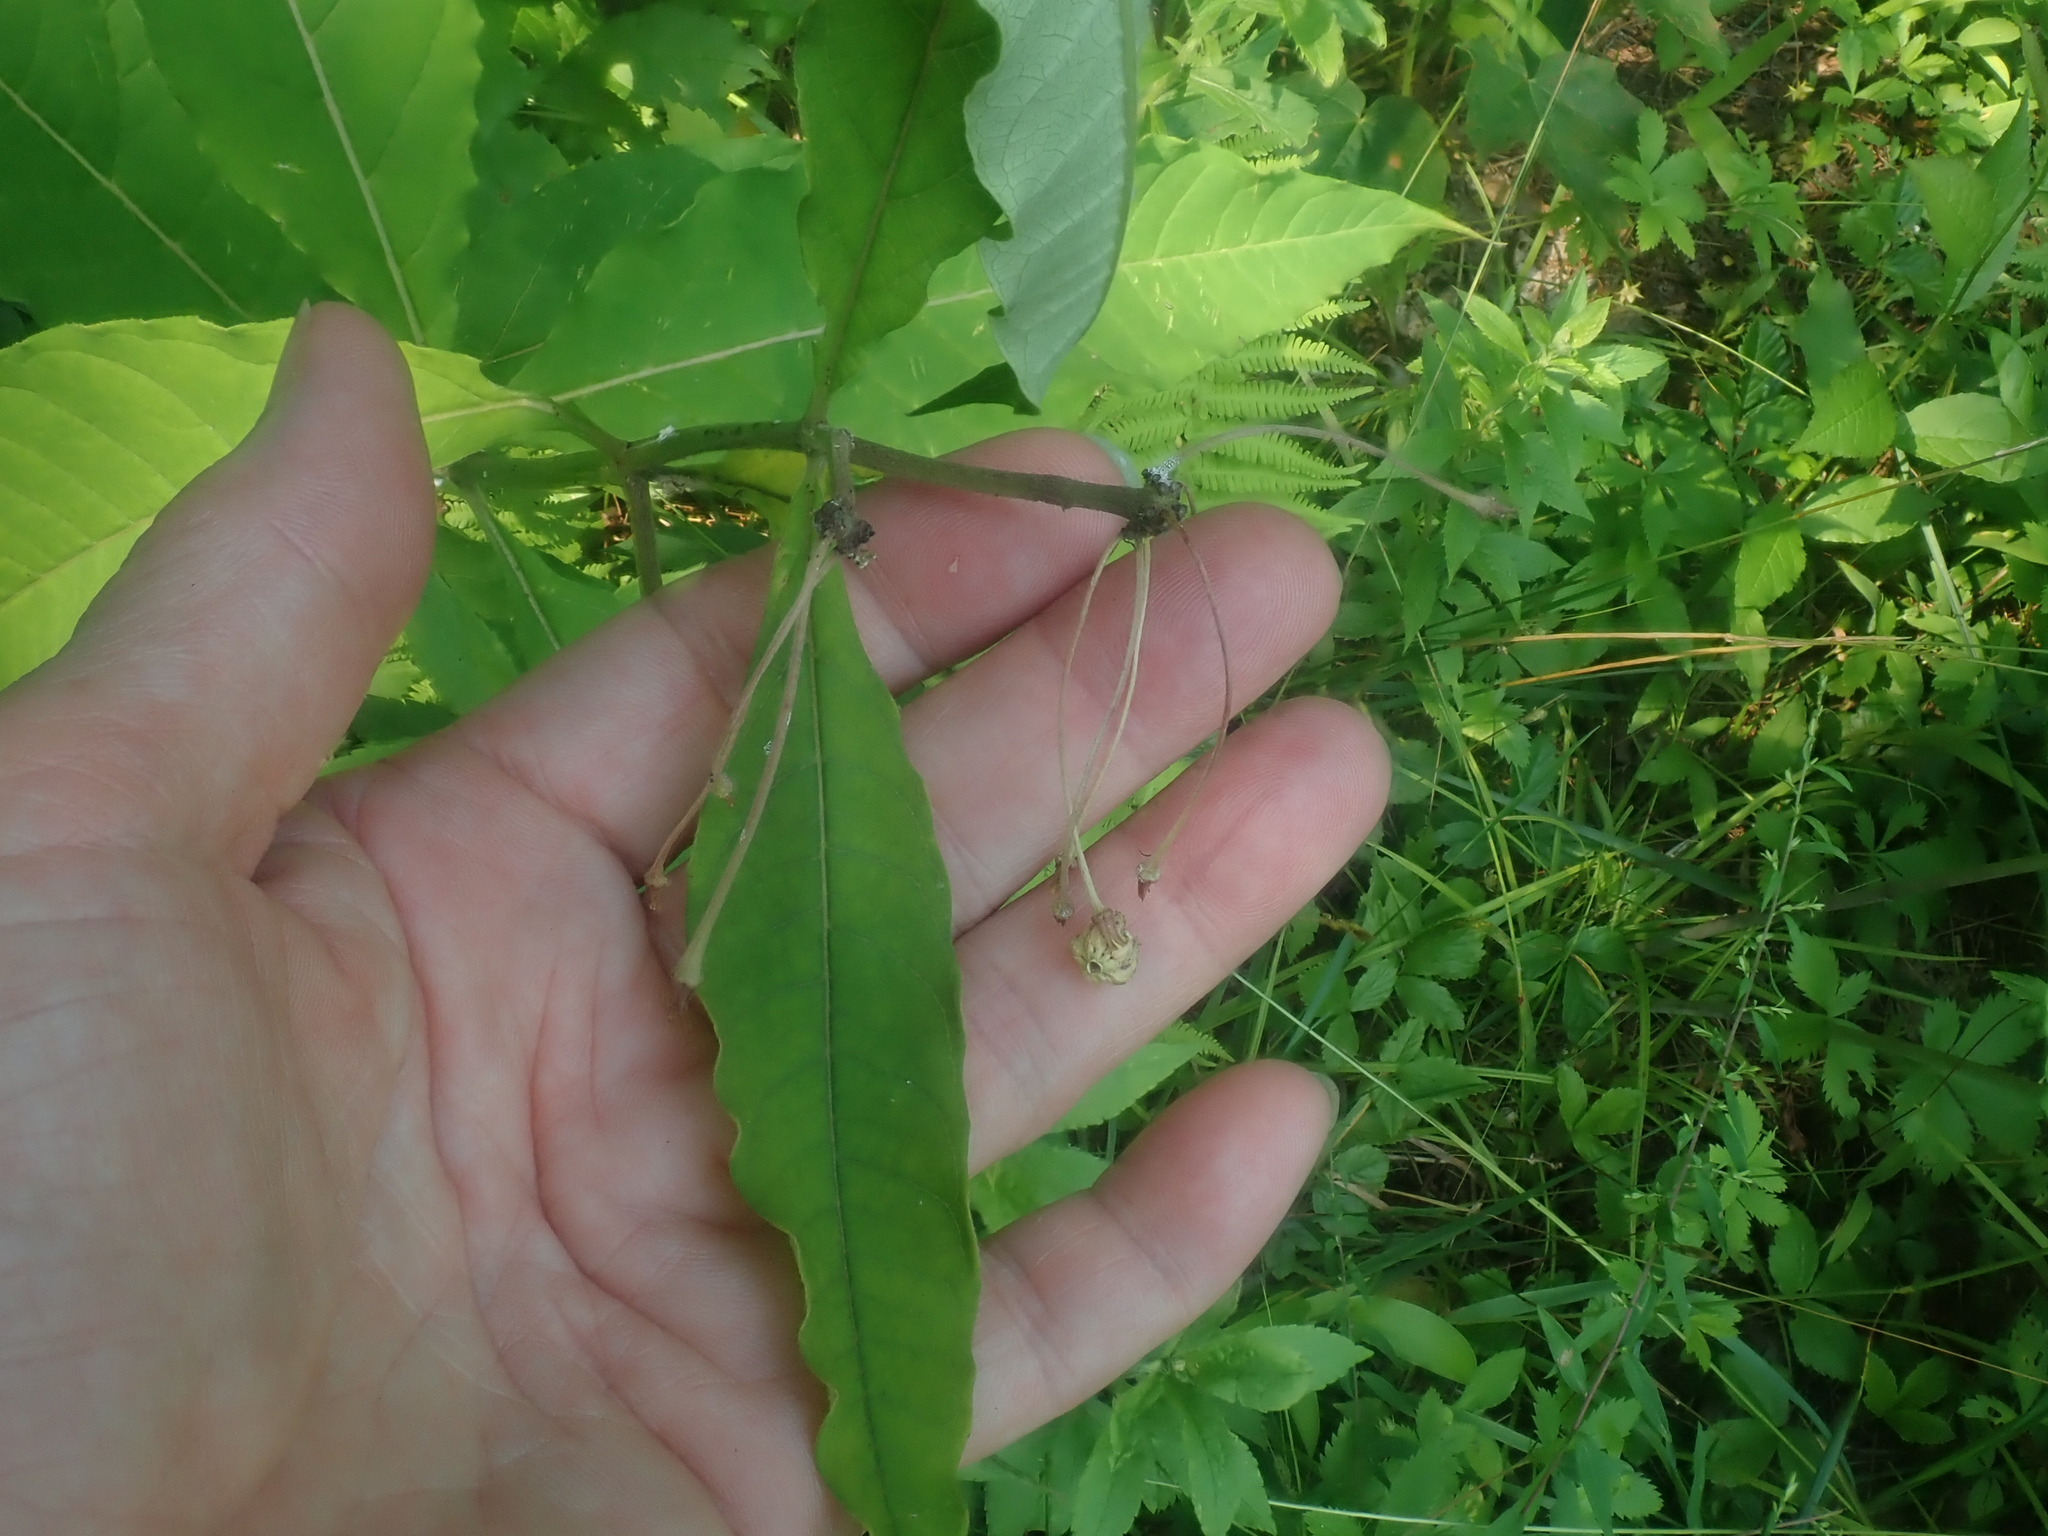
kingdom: Plantae
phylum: Tracheophyta
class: Magnoliopsida
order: Gentianales
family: Apocynaceae
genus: Asclepias
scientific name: Asclepias exaltata
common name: Poke milkweed
